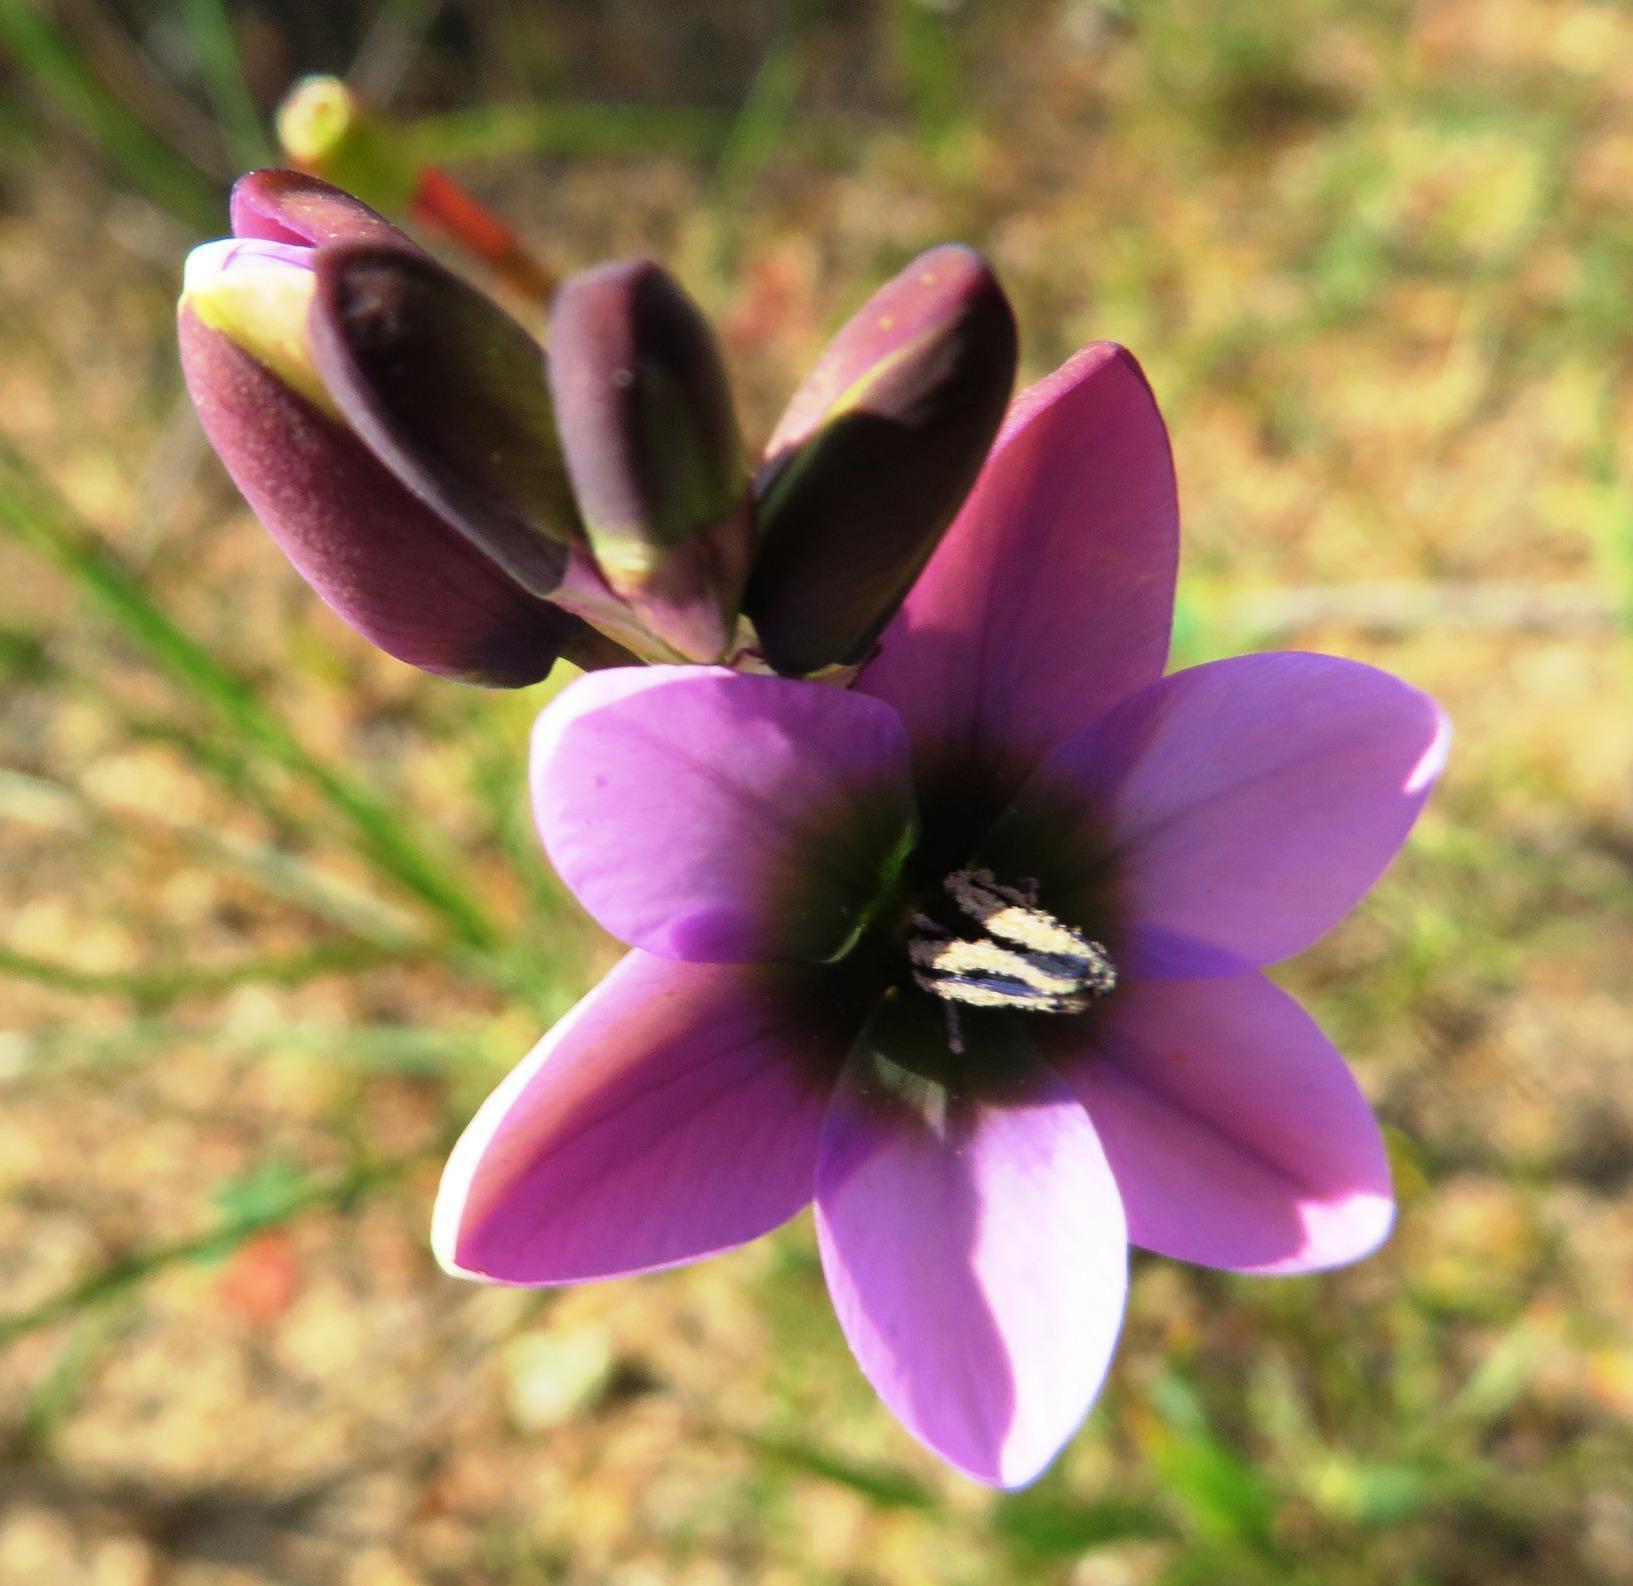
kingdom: Plantae
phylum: Tracheophyta
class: Liliopsida
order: Asparagales
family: Iridaceae
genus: Ixia
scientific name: Ixia versicolor
